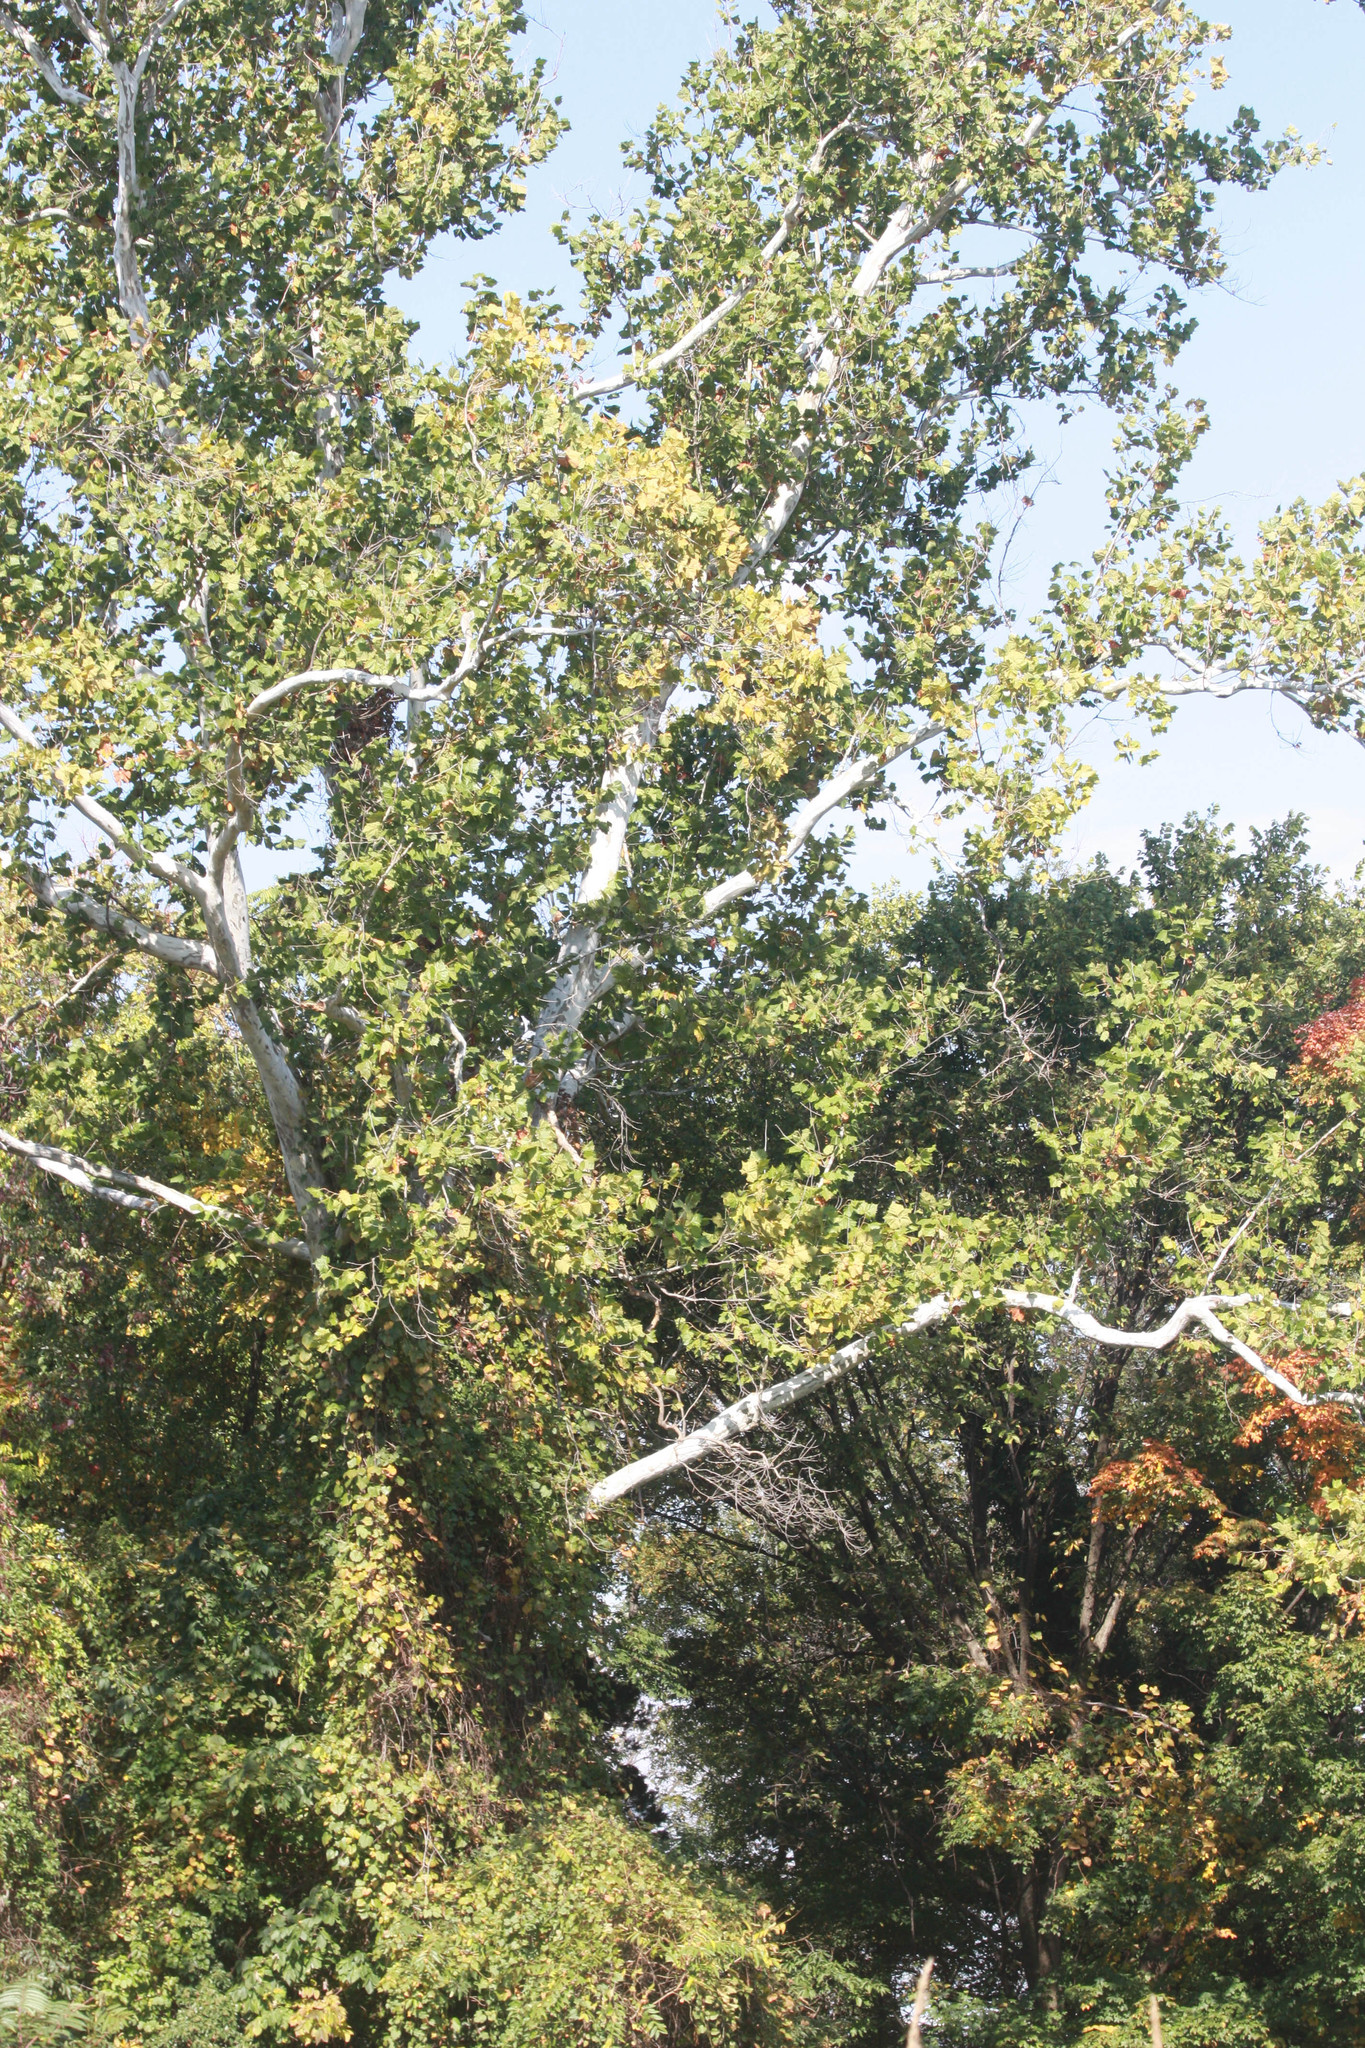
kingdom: Plantae
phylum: Tracheophyta
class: Magnoliopsida
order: Proteales
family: Platanaceae
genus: Platanus
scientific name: Platanus occidentalis
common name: American sycamore
